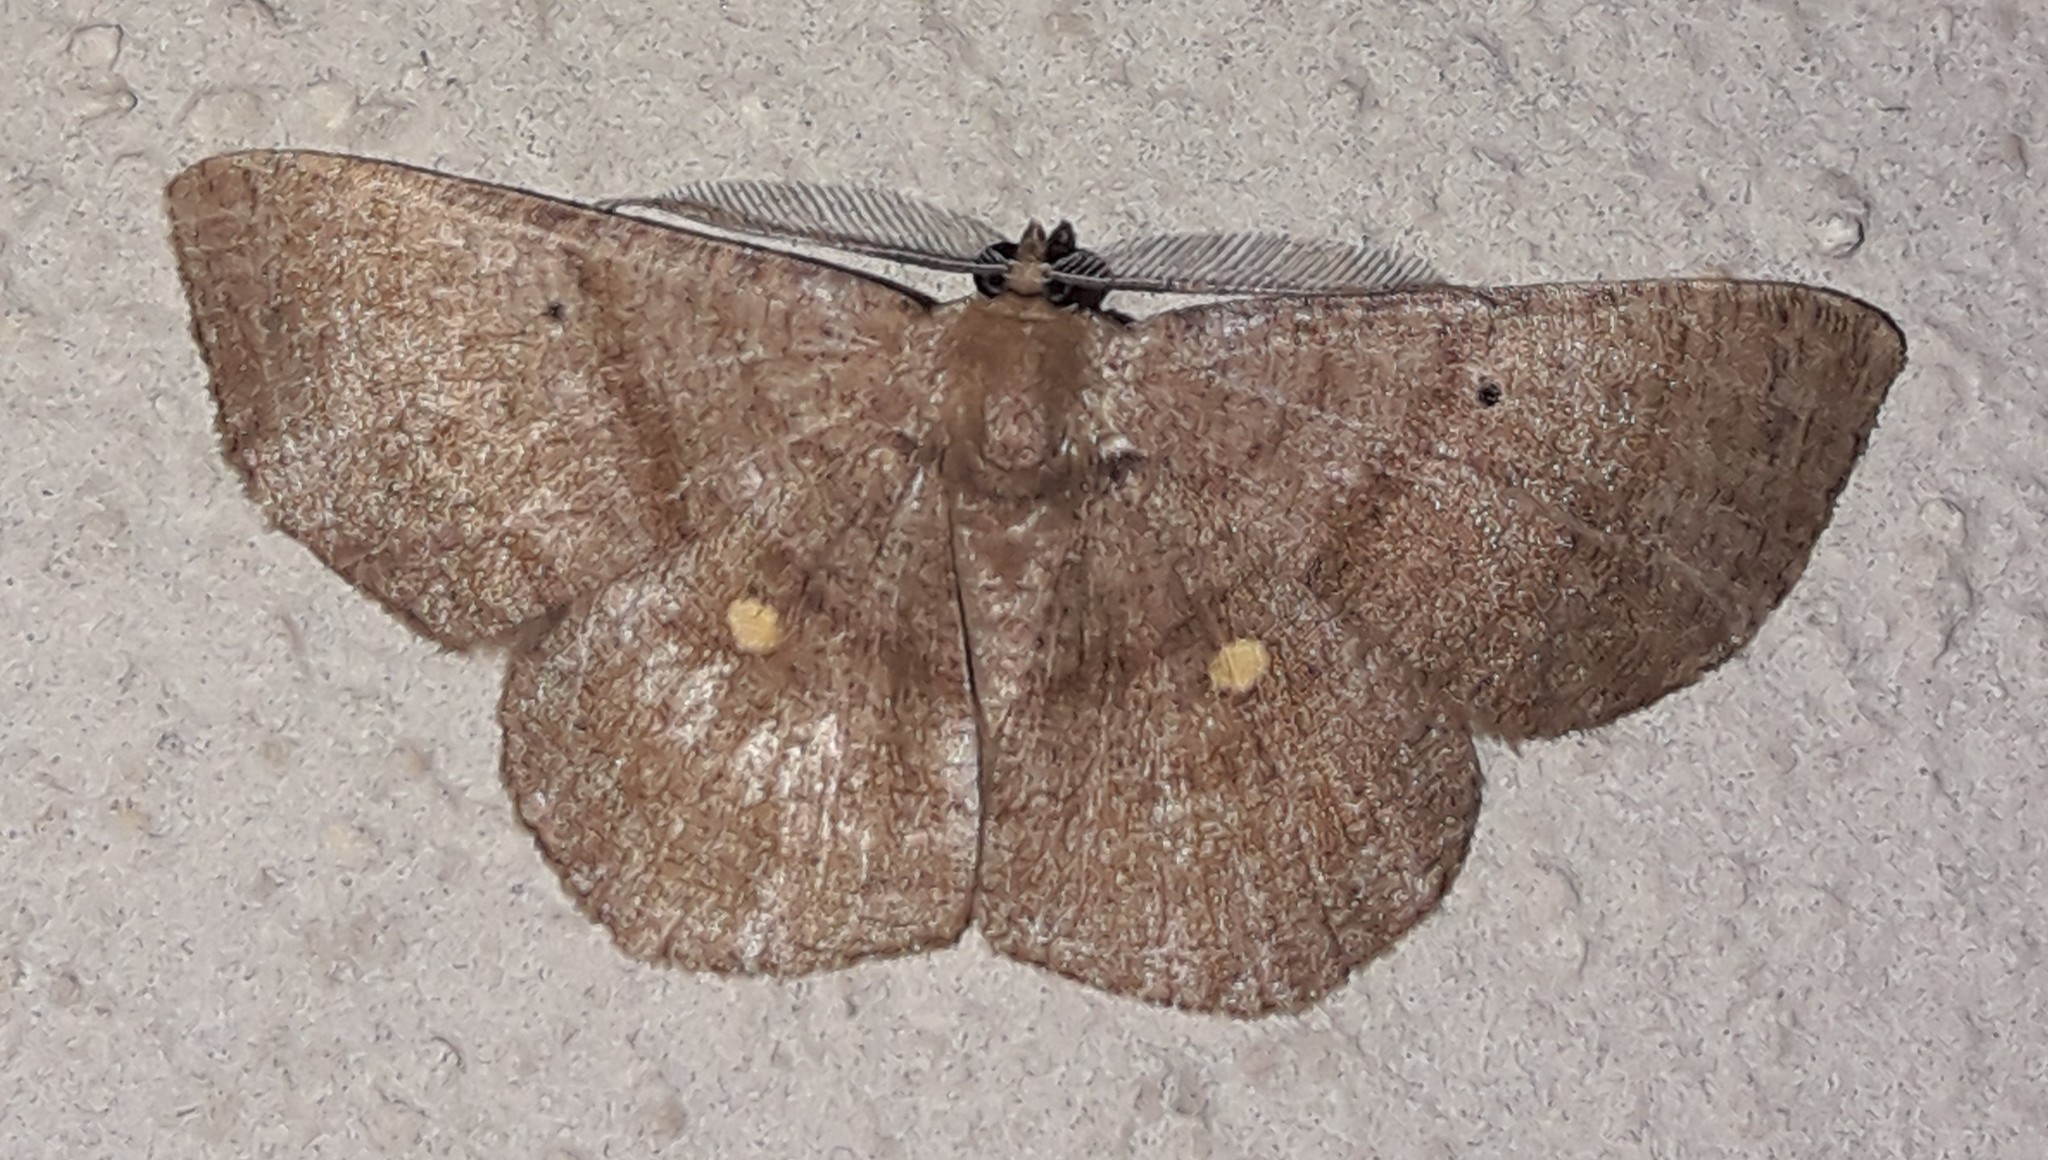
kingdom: Animalia
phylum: Arthropoda
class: Insecta
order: Lepidoptera
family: Geometridae
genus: Parilexia
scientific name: Parilexia cermala
